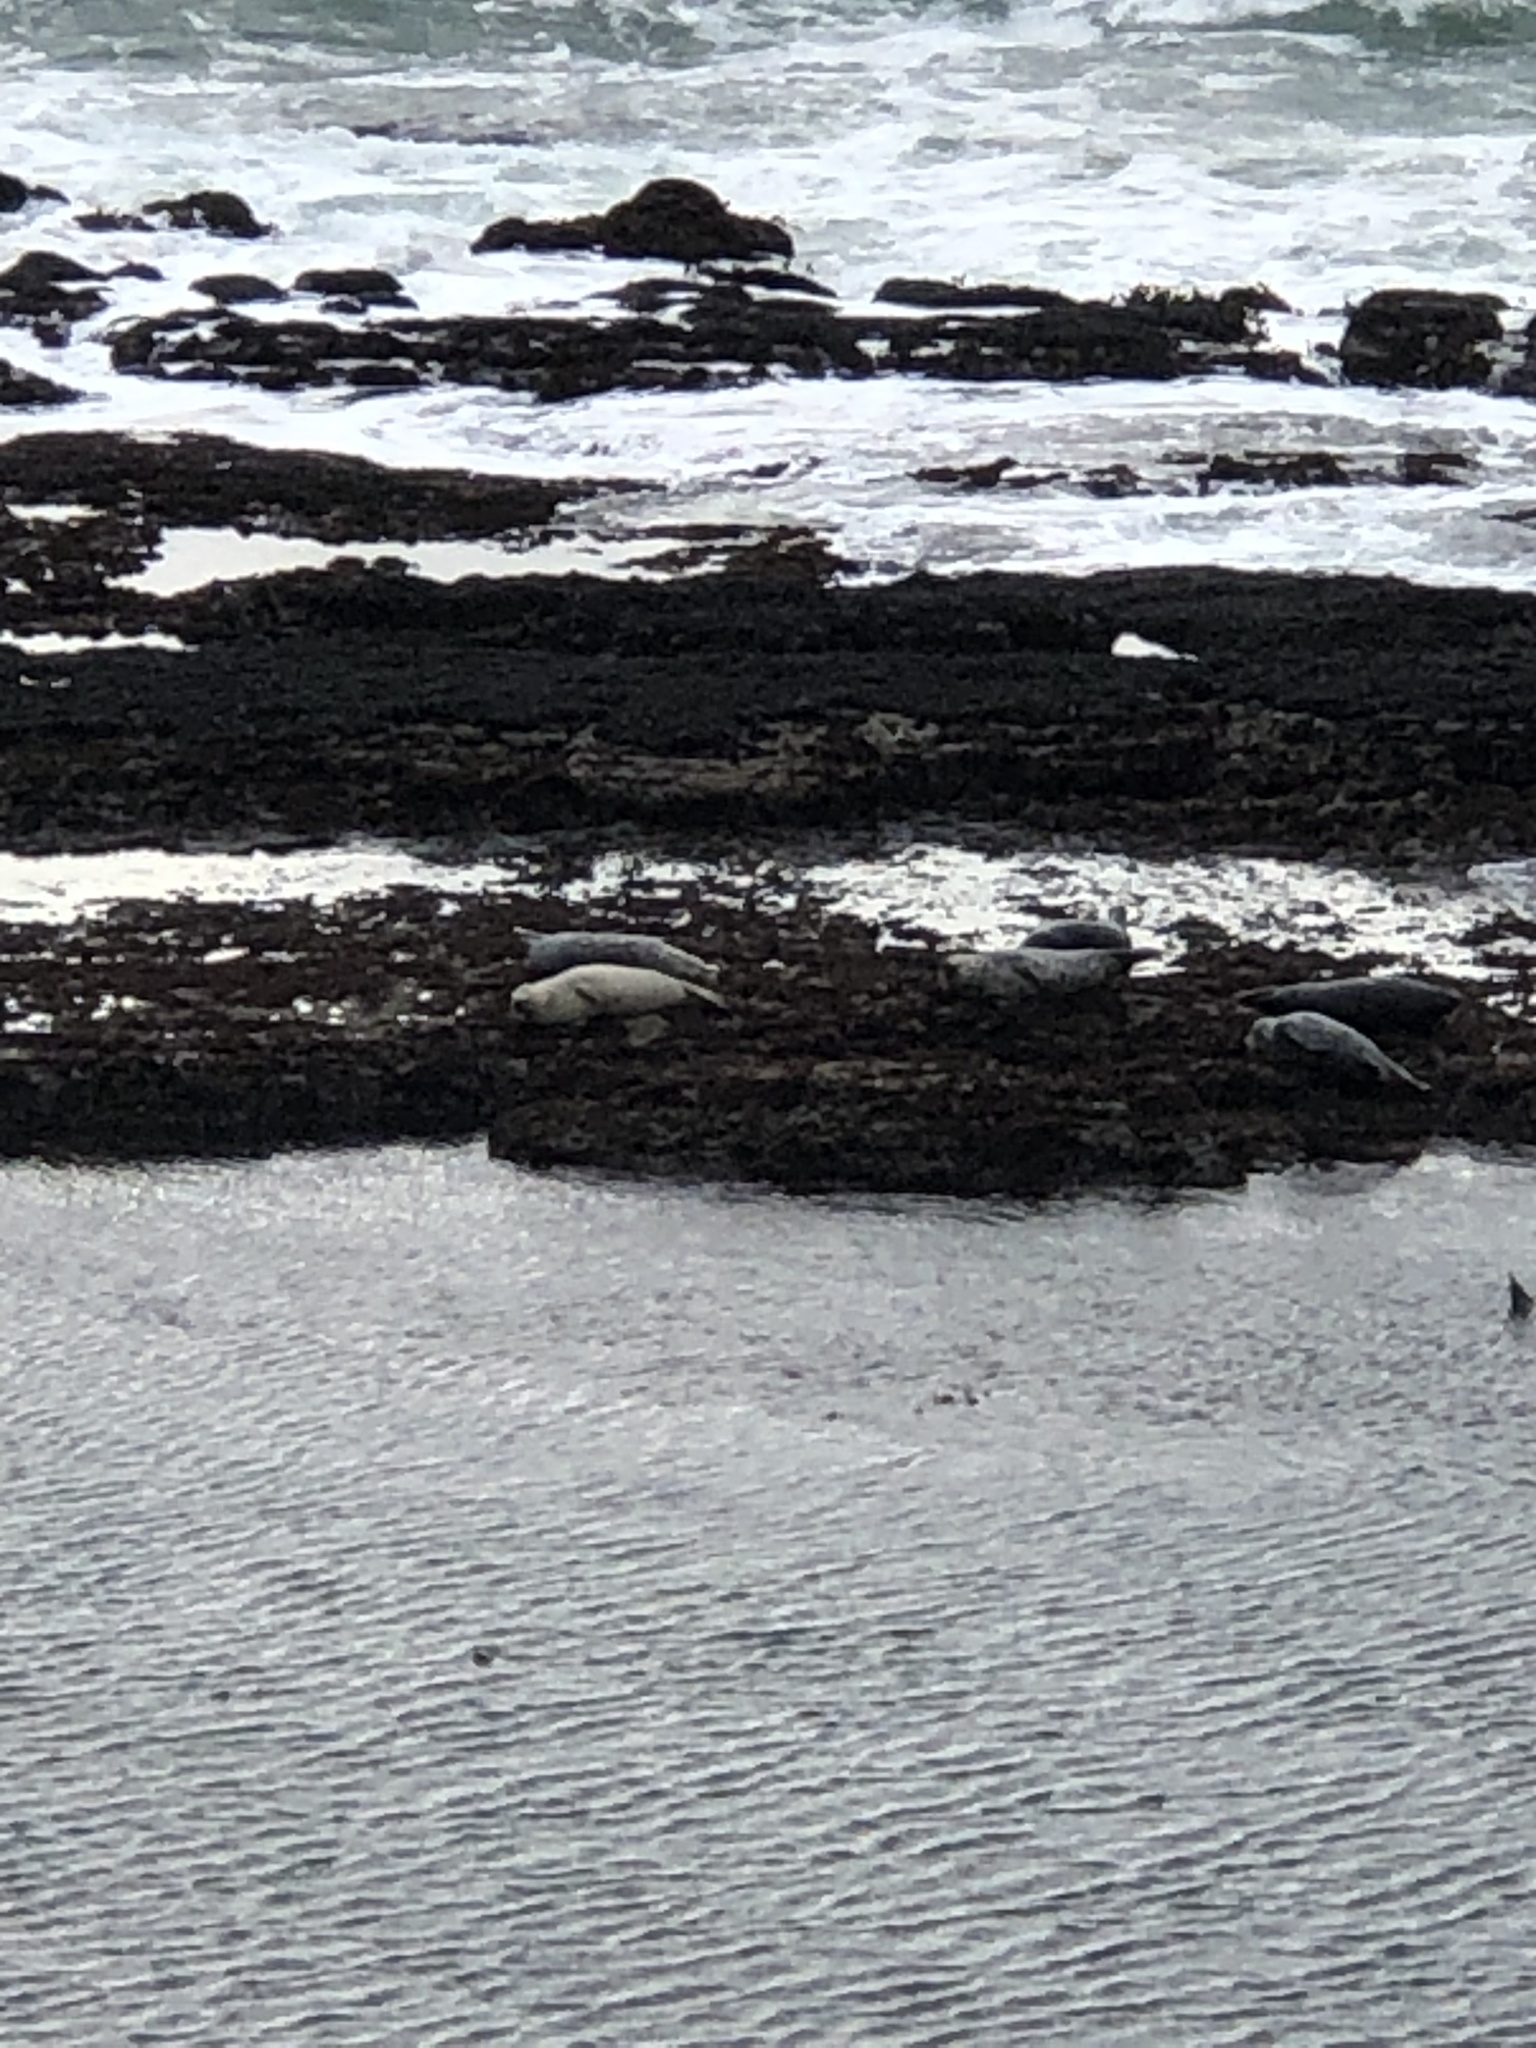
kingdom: Animalia
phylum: Chordata
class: Mammalia
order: Carnivora
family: Phocidae
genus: Phoca
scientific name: Phoca vitulina
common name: Harbor seal
